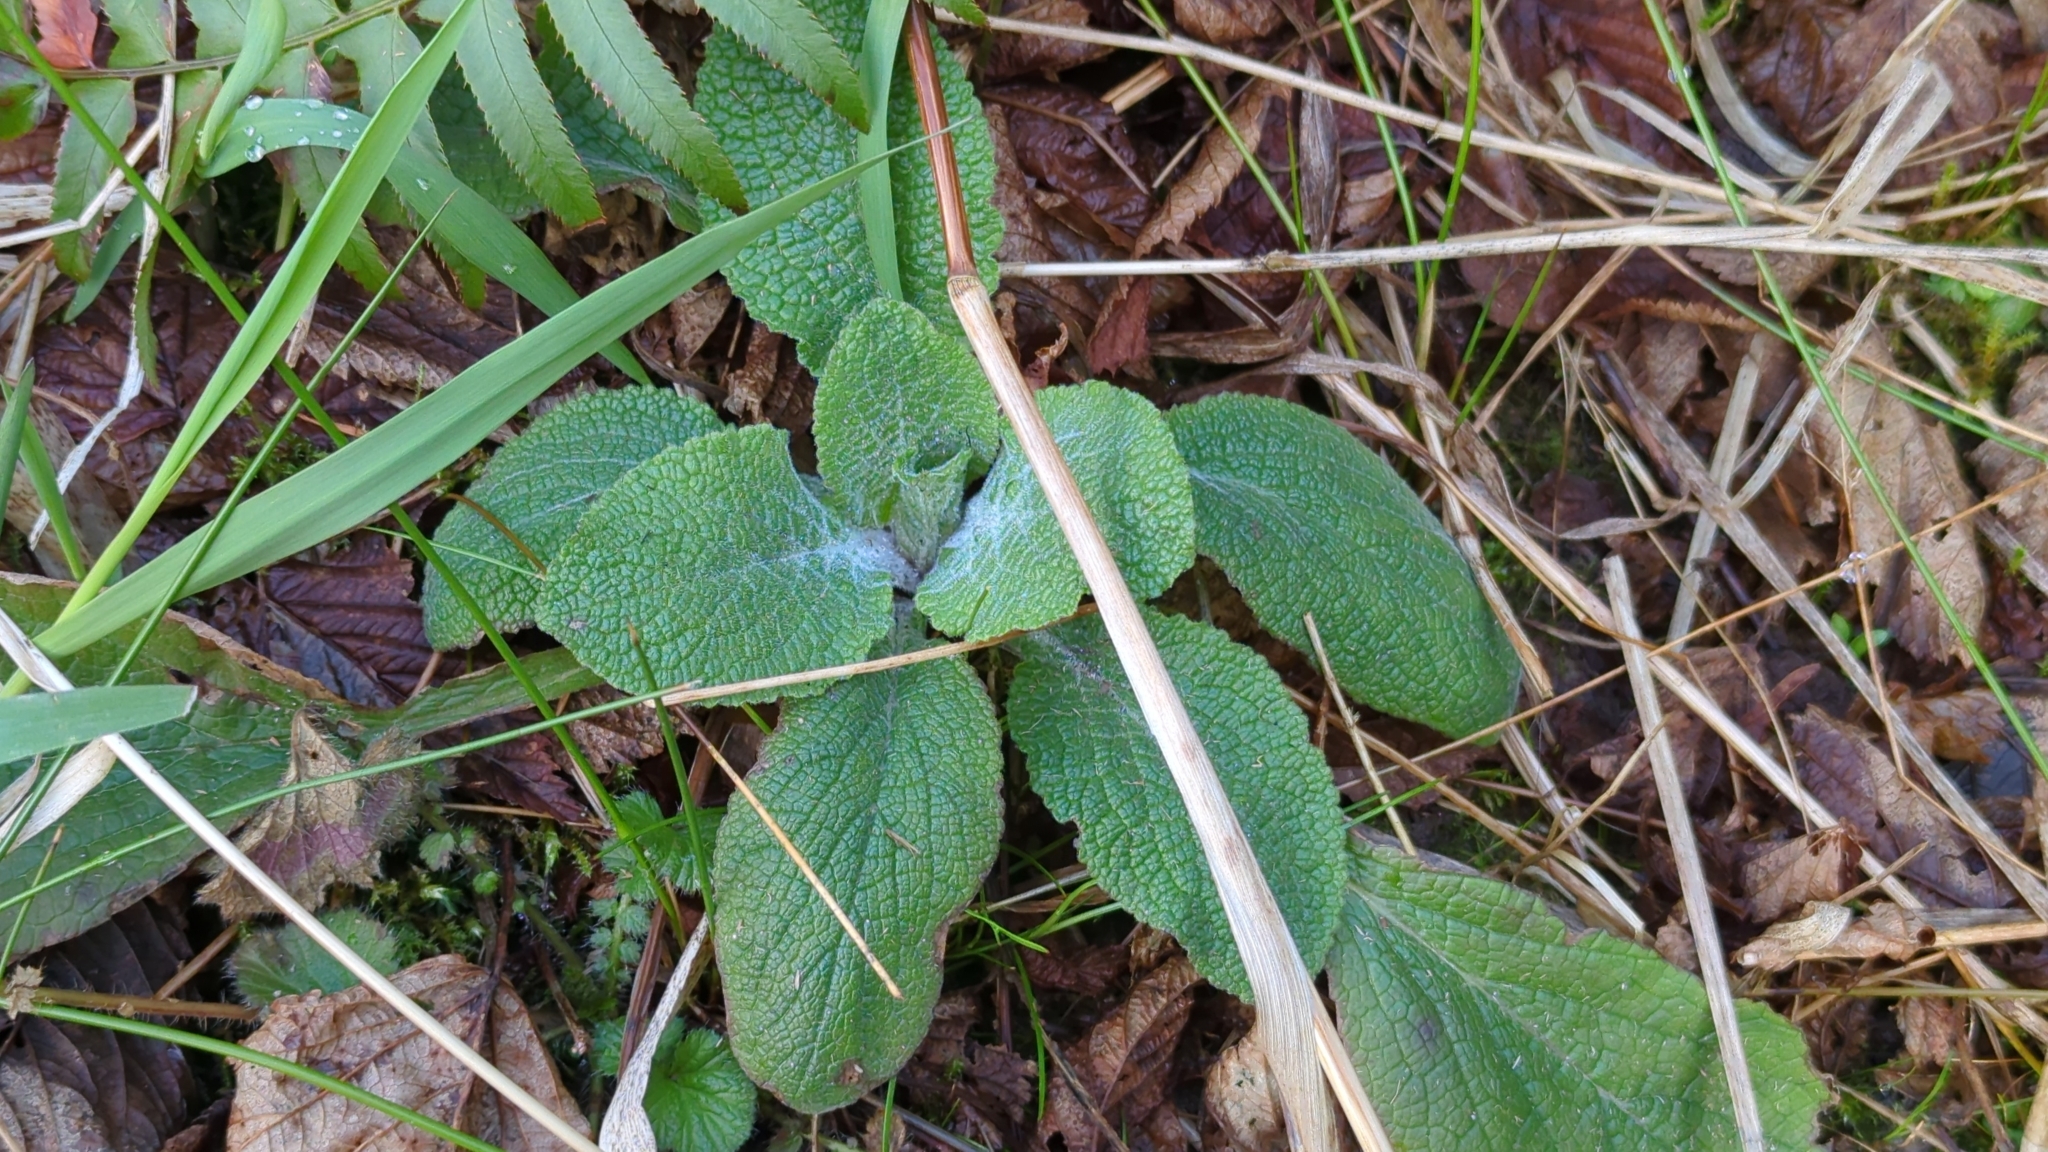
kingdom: Plantae
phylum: Tracheophyta
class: Magnoliopsida
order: Lamiales
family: Plantaginaceae
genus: Digitalis
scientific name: Digitalis purpurea
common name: Foxglove
